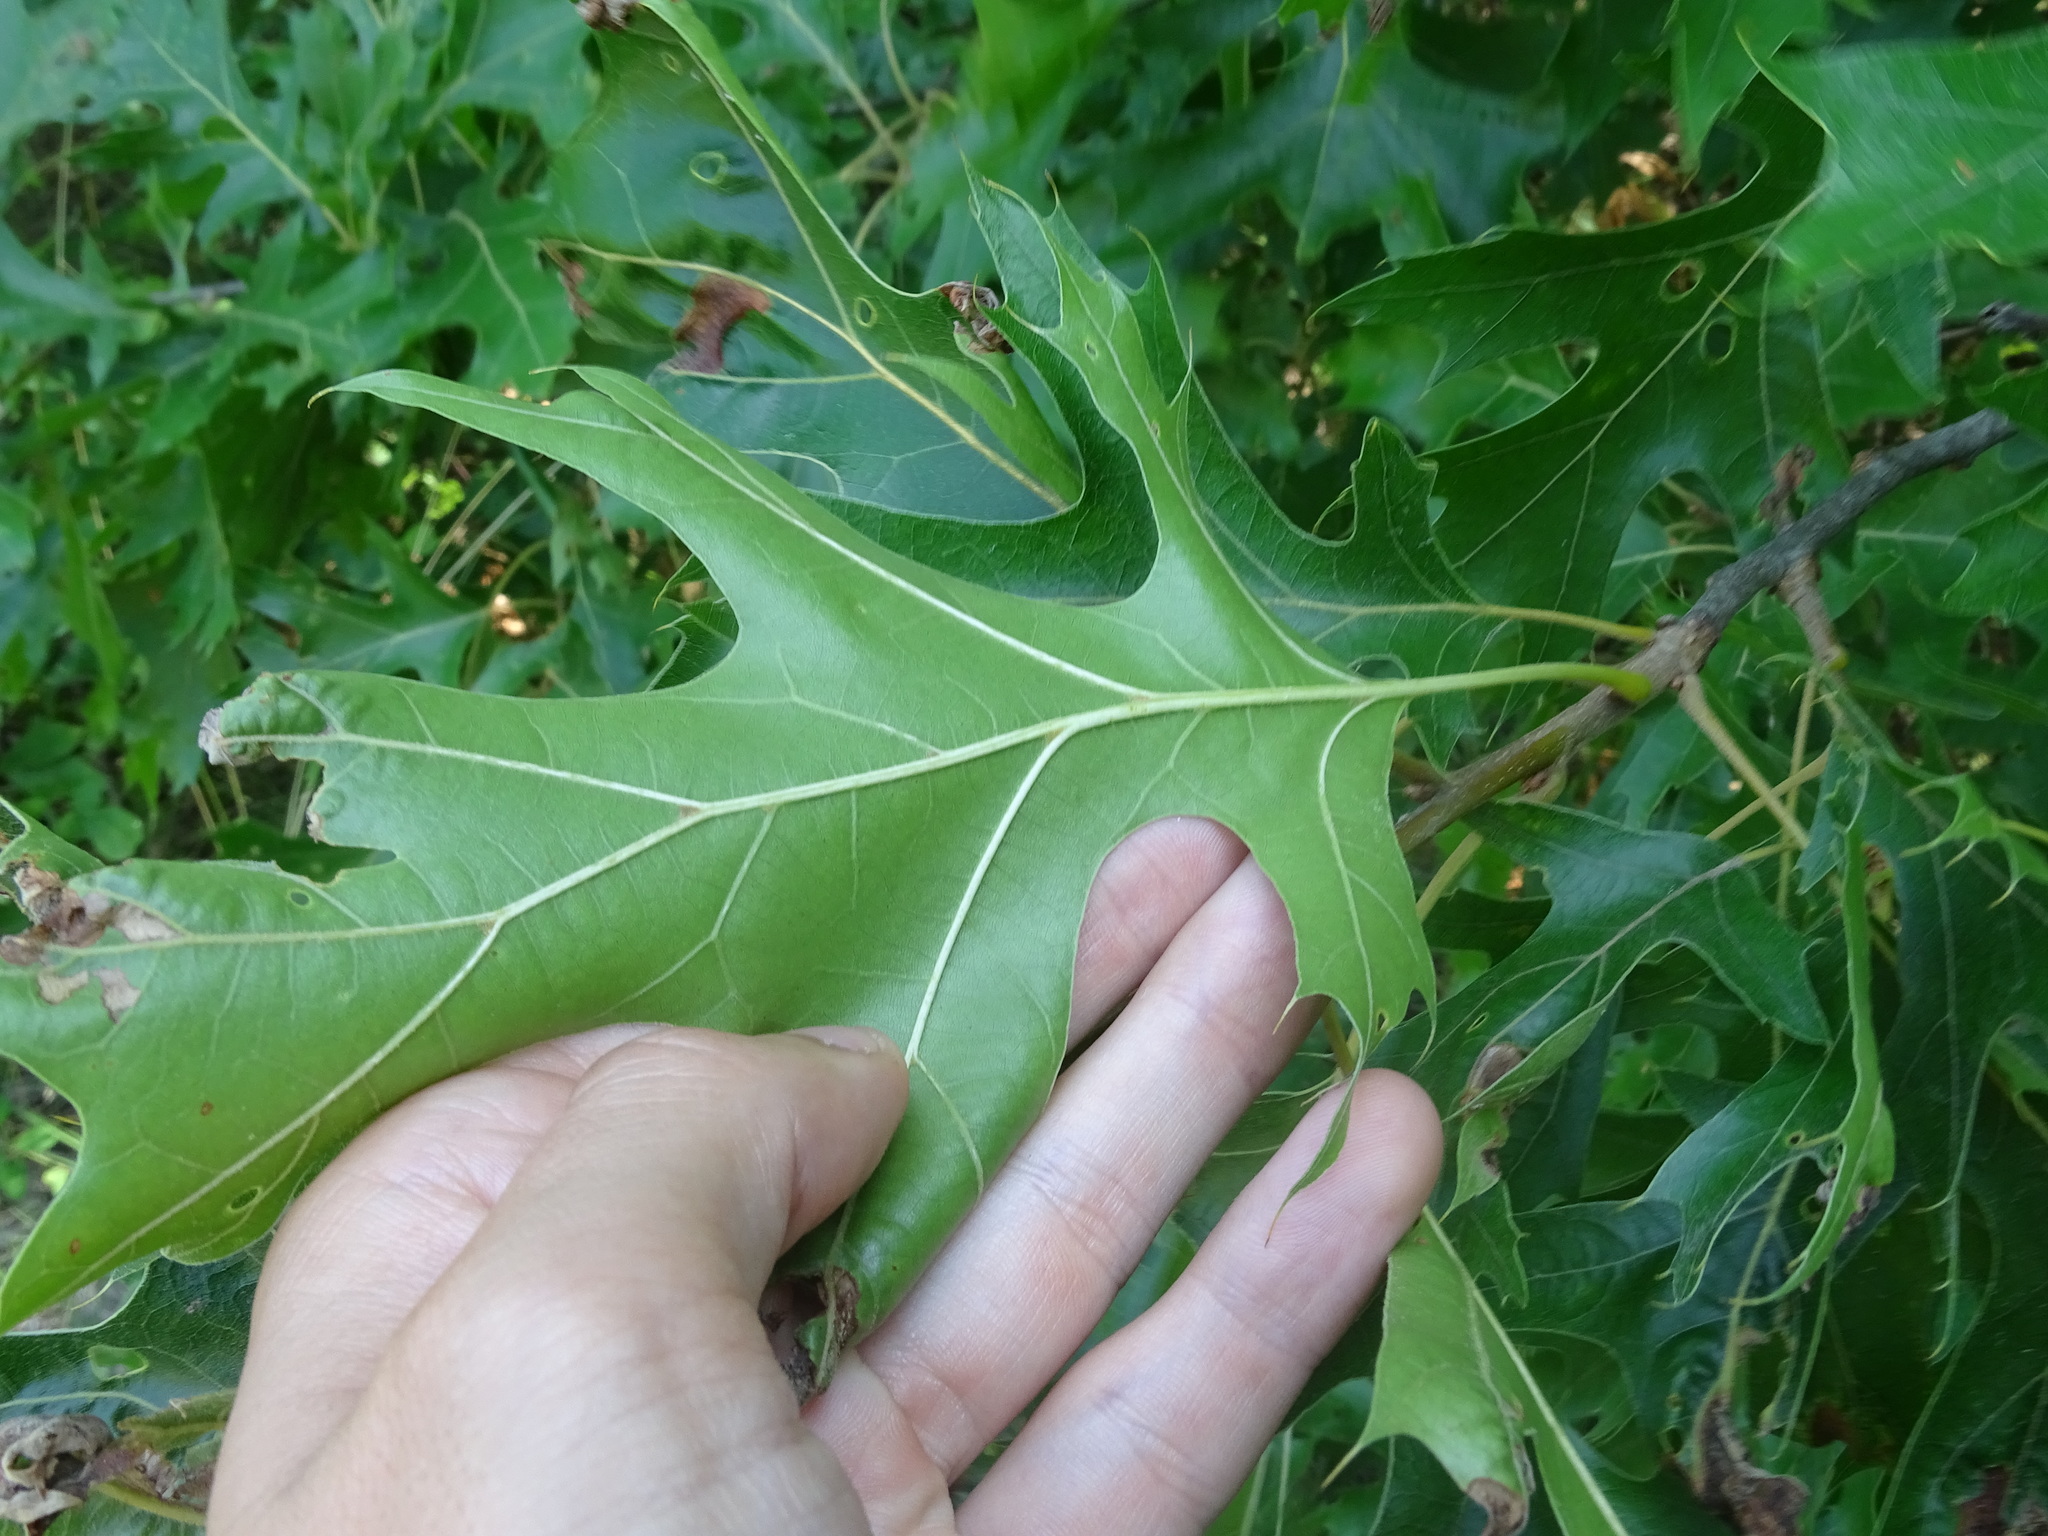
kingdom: Plantae
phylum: Tracheophyta
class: Magnoliopsida
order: Fagales
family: Fagaceae
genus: Quercus
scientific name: Quercus ellipsoidalis
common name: Hill's oak
